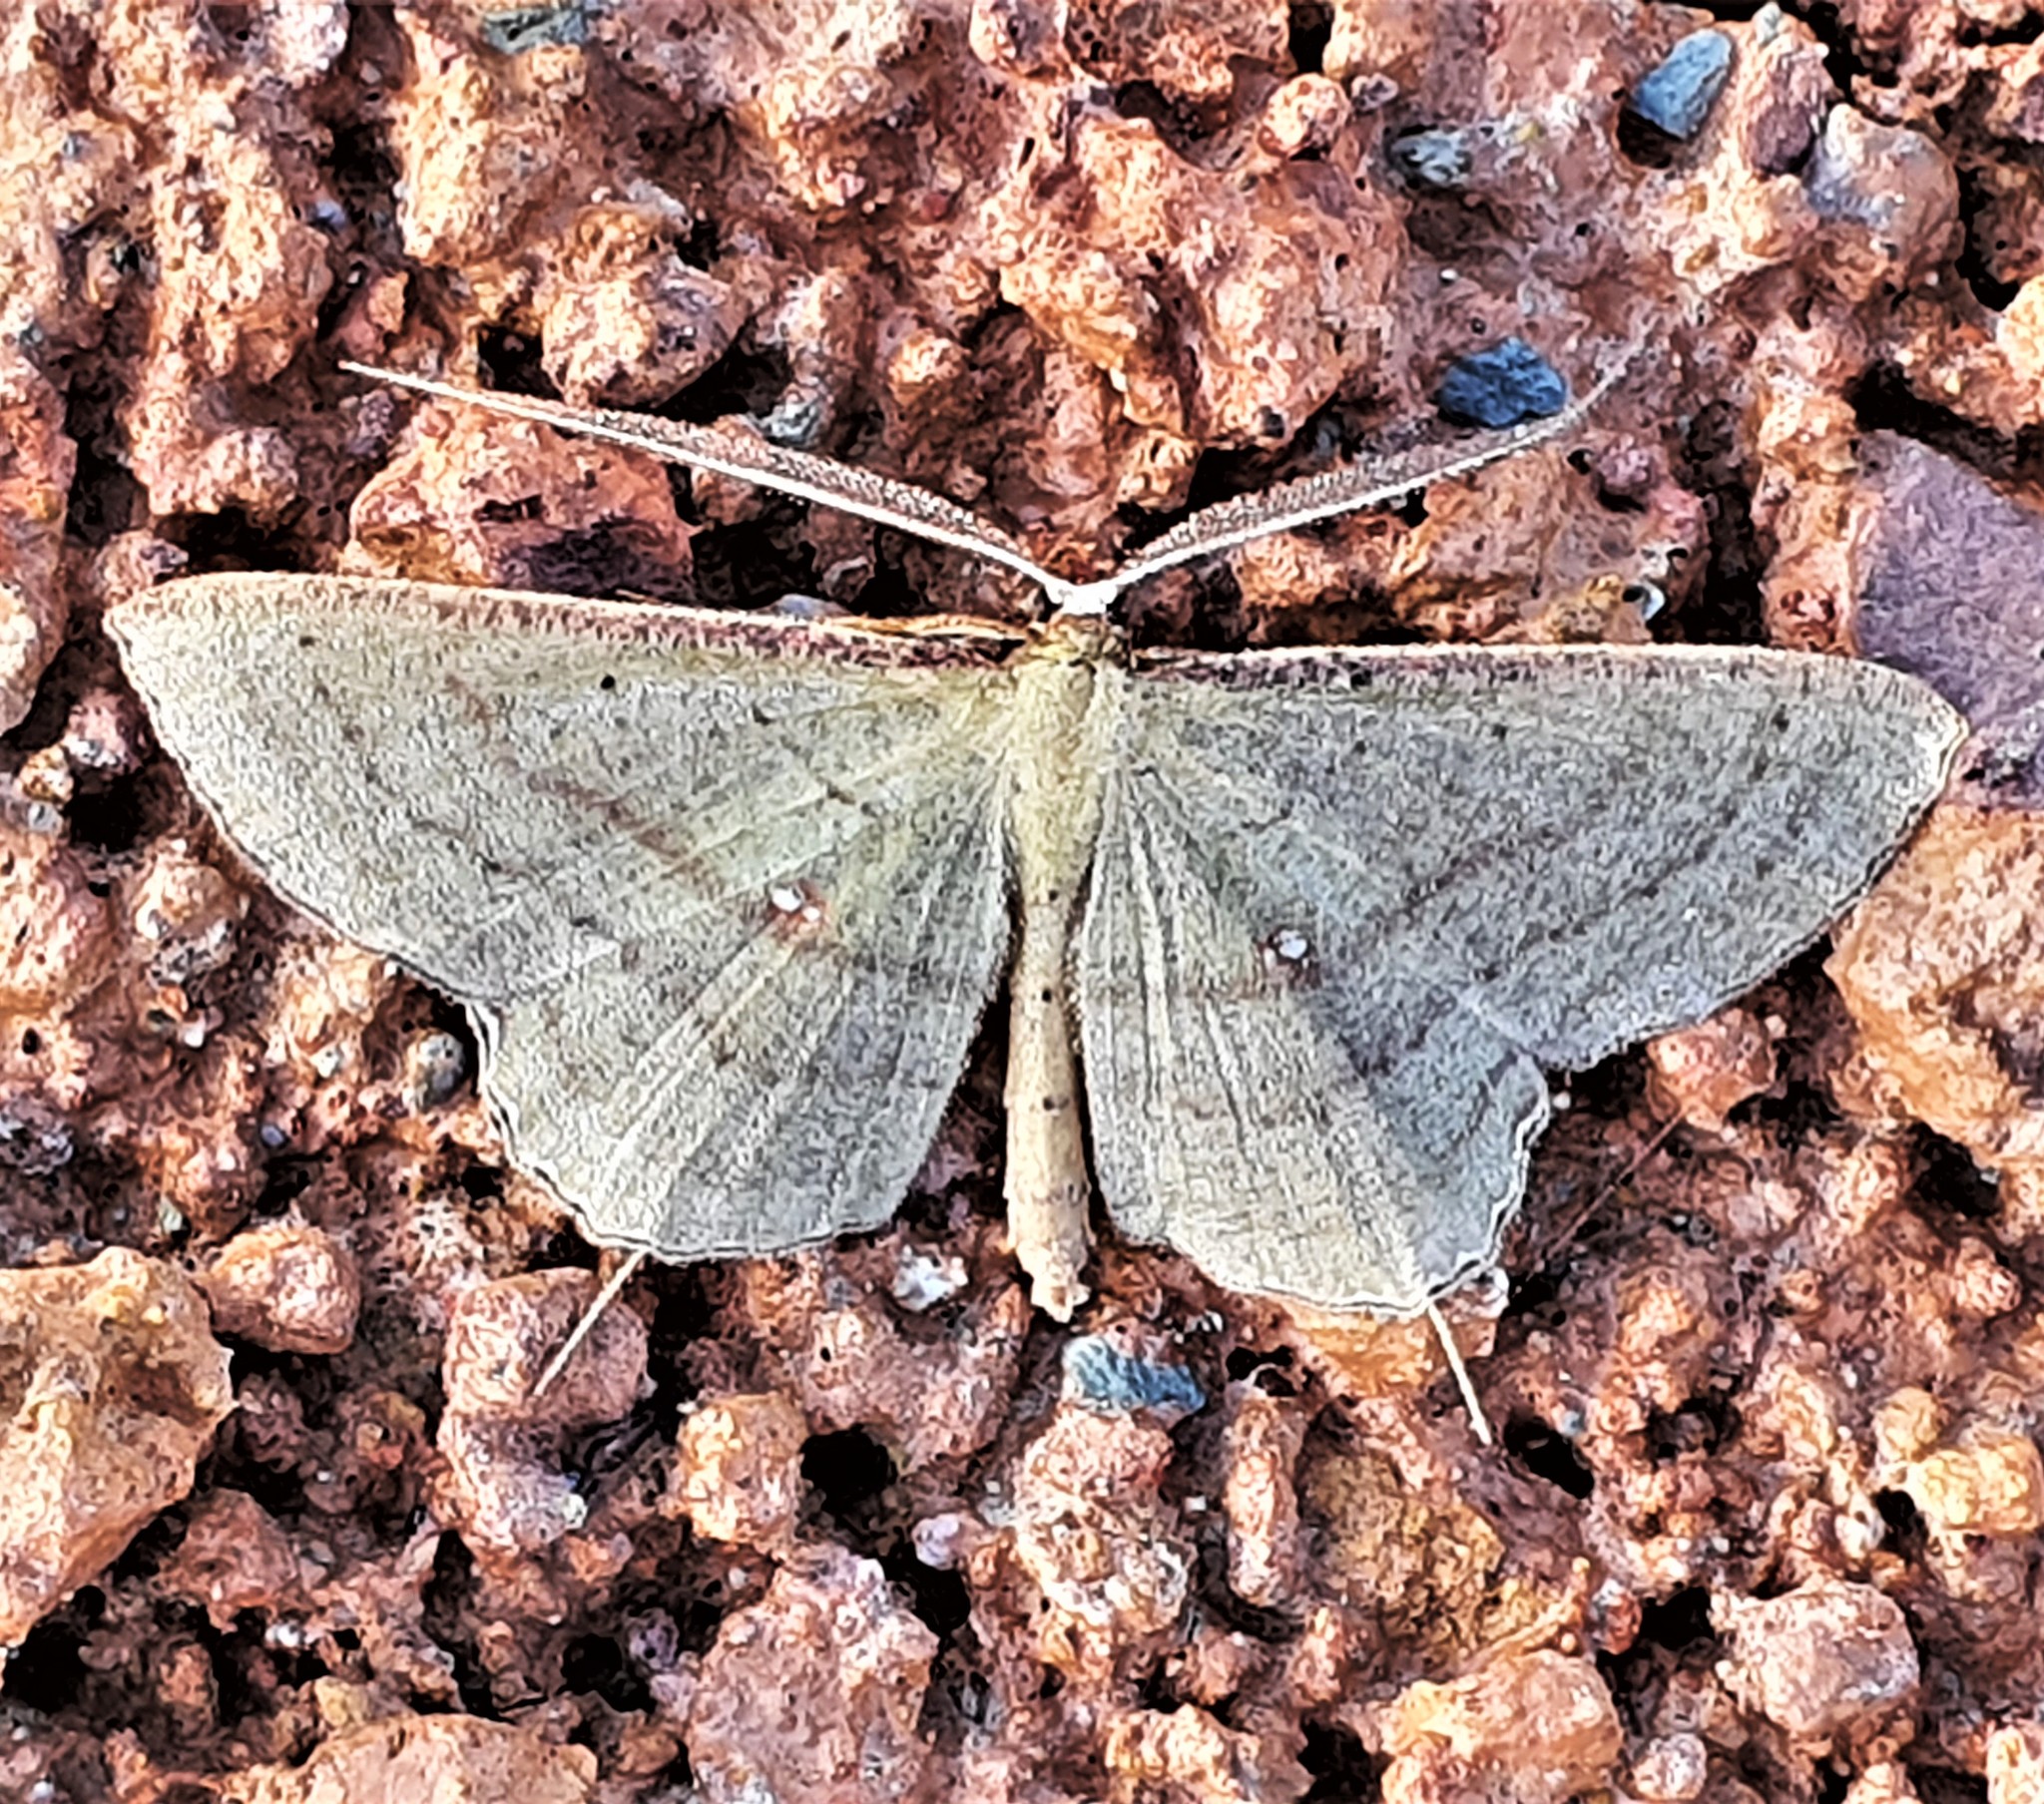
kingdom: Animalia
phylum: Arthropoda
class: Insecta
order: Lepidoptera
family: Geometridae
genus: Ametris
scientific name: Ametris nitocris
